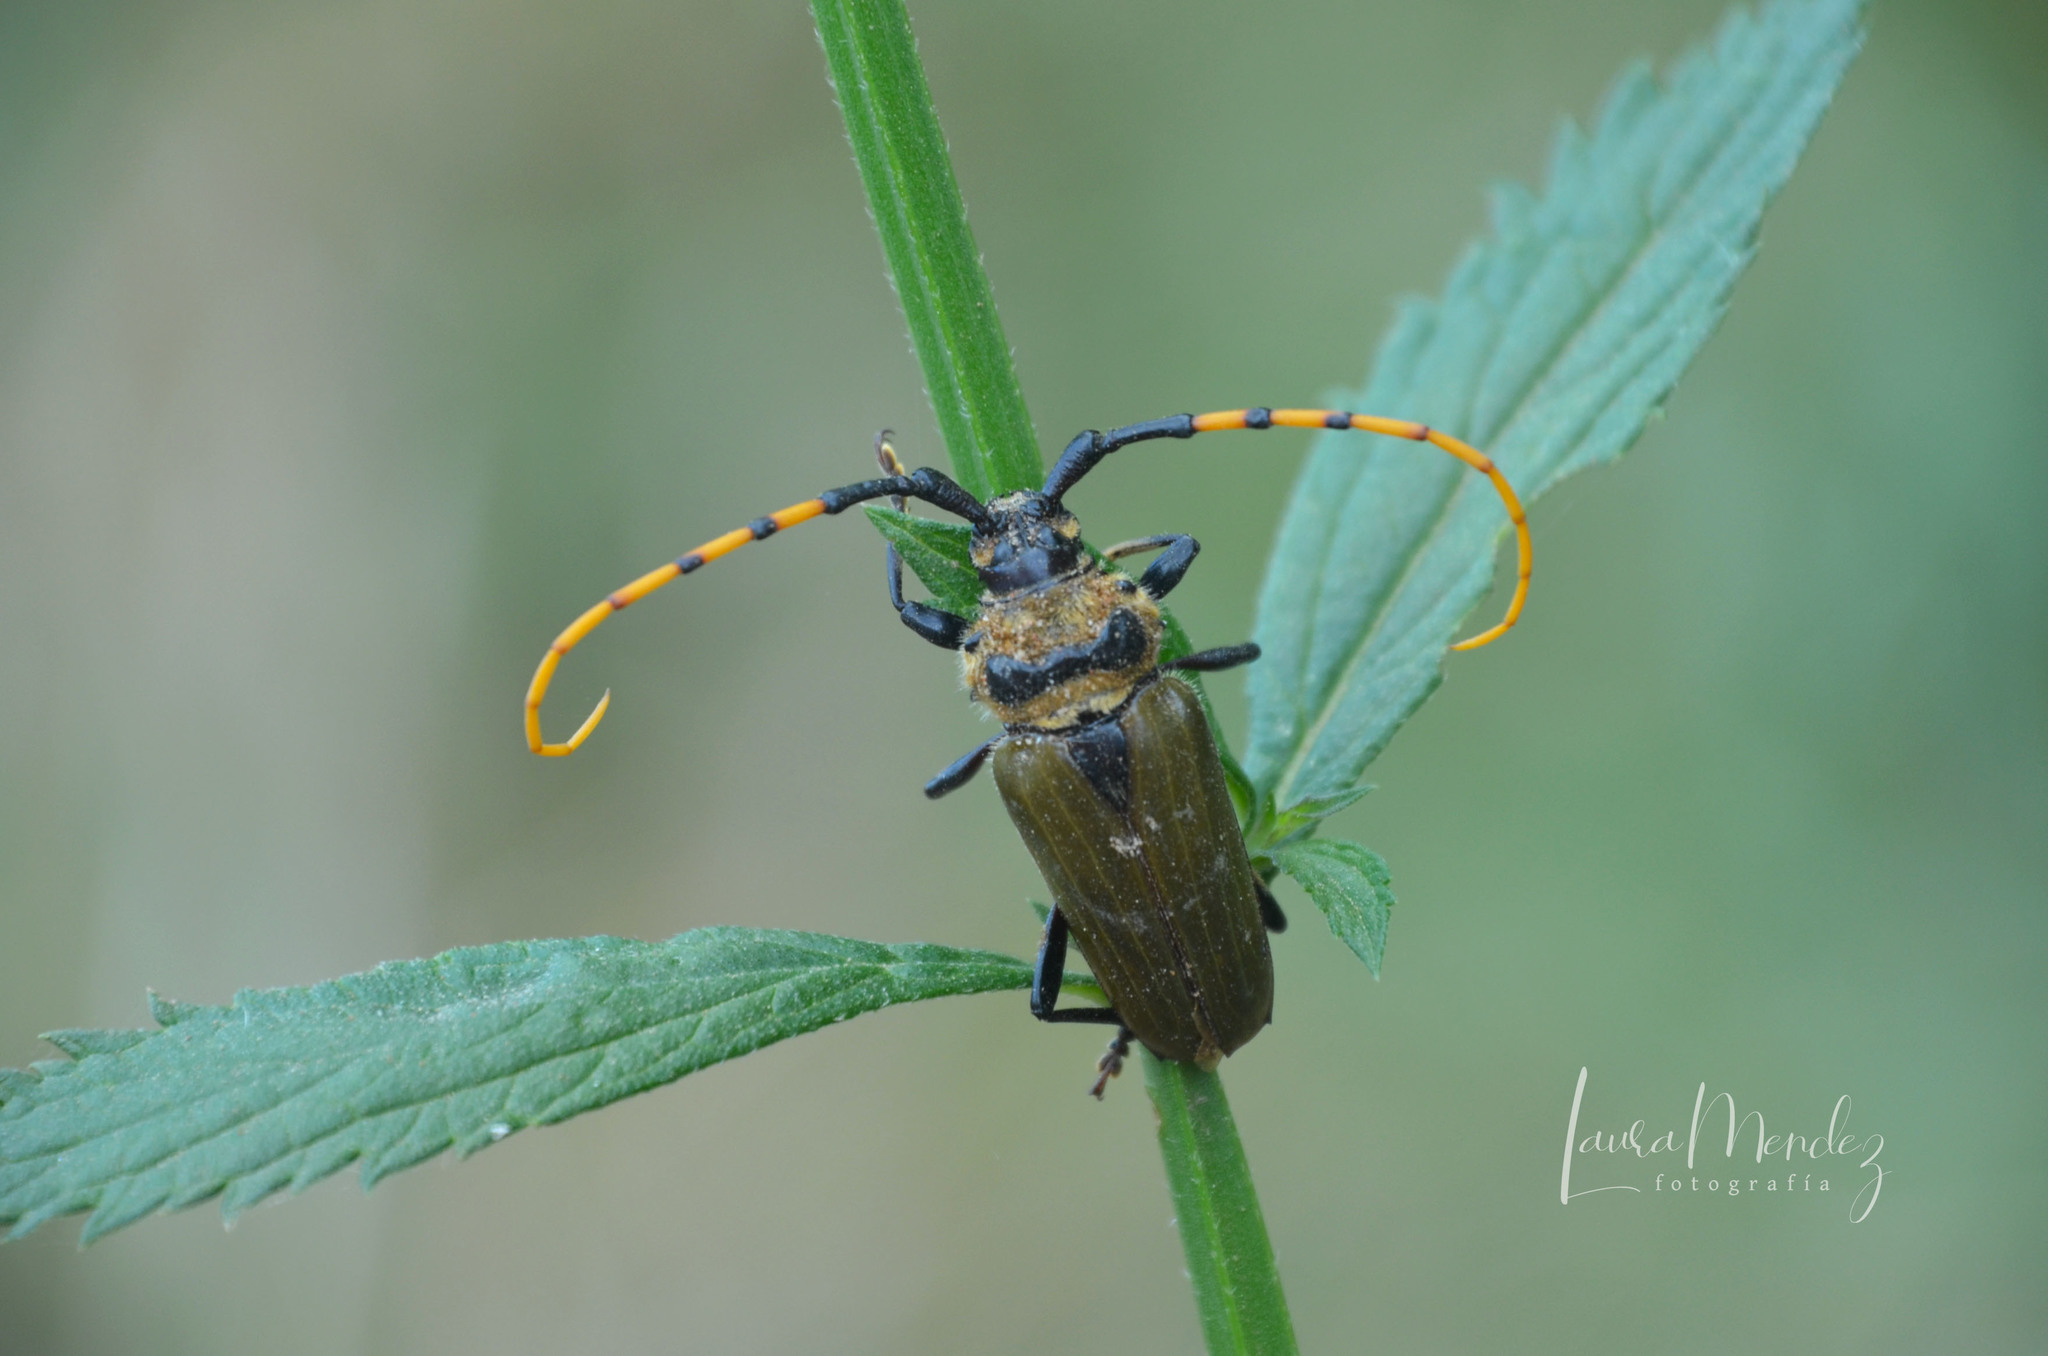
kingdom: Animalia
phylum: Arthropoda
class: Insecta
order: Coleoptera
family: Cerambycidae
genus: Retrachydes
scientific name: Retrachydes thoracicus
